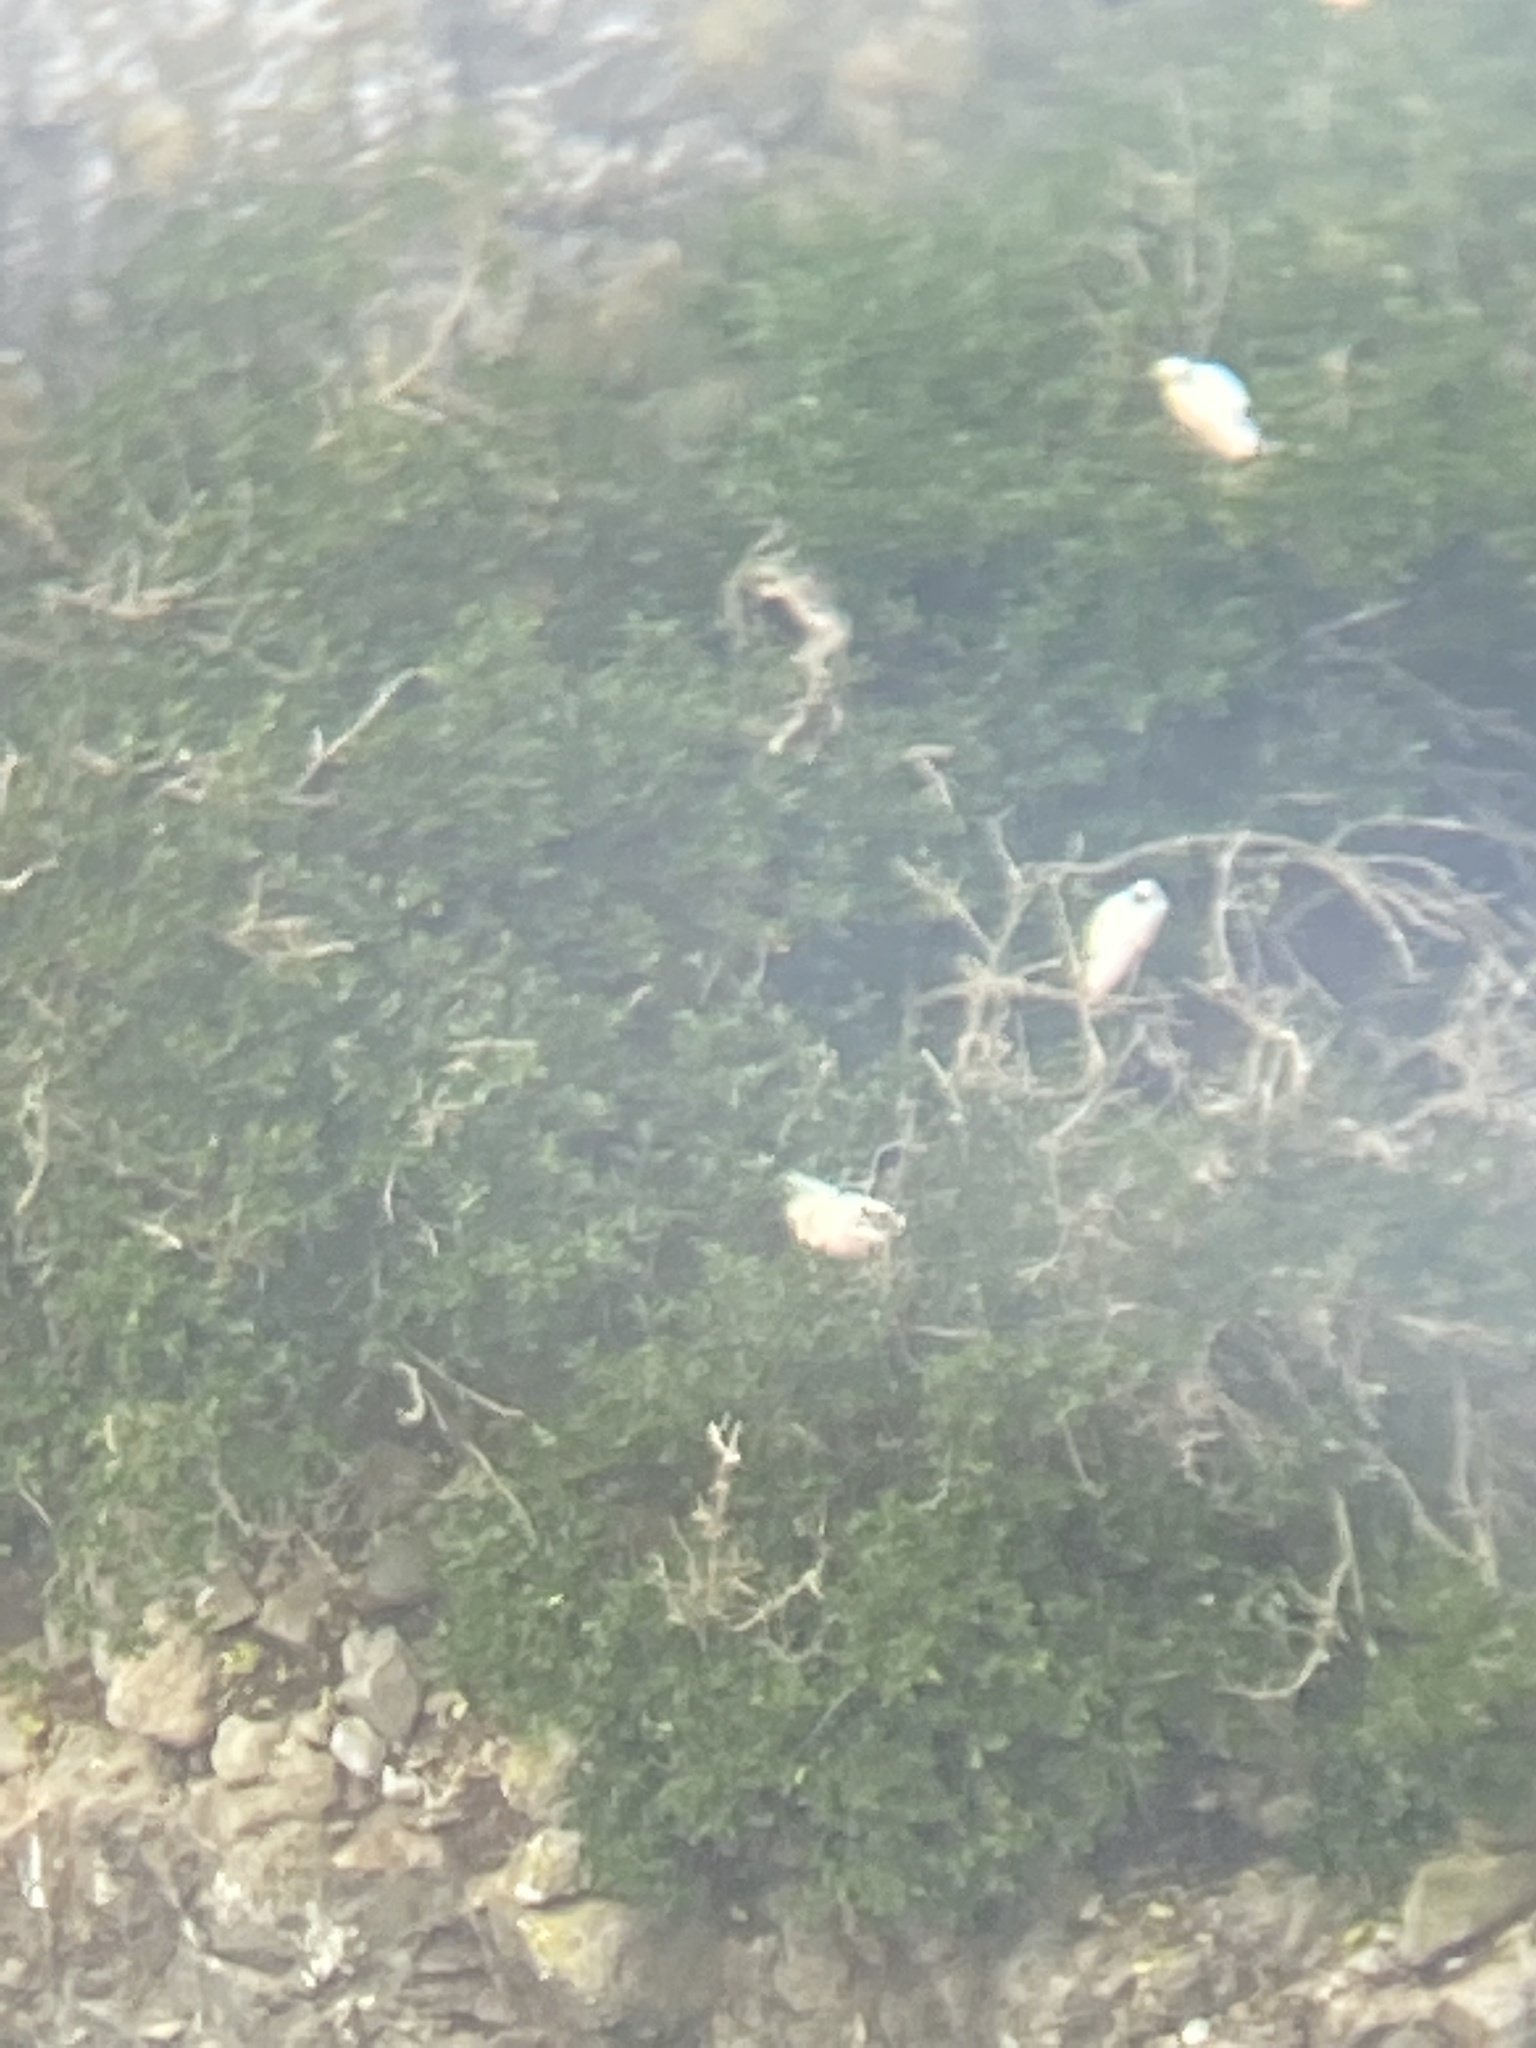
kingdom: Animalia
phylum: Chordata
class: Aves
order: Pelecaniformes
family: Threskiornithidae
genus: Platalea
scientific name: Platalea regia
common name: Royal spoonbill
